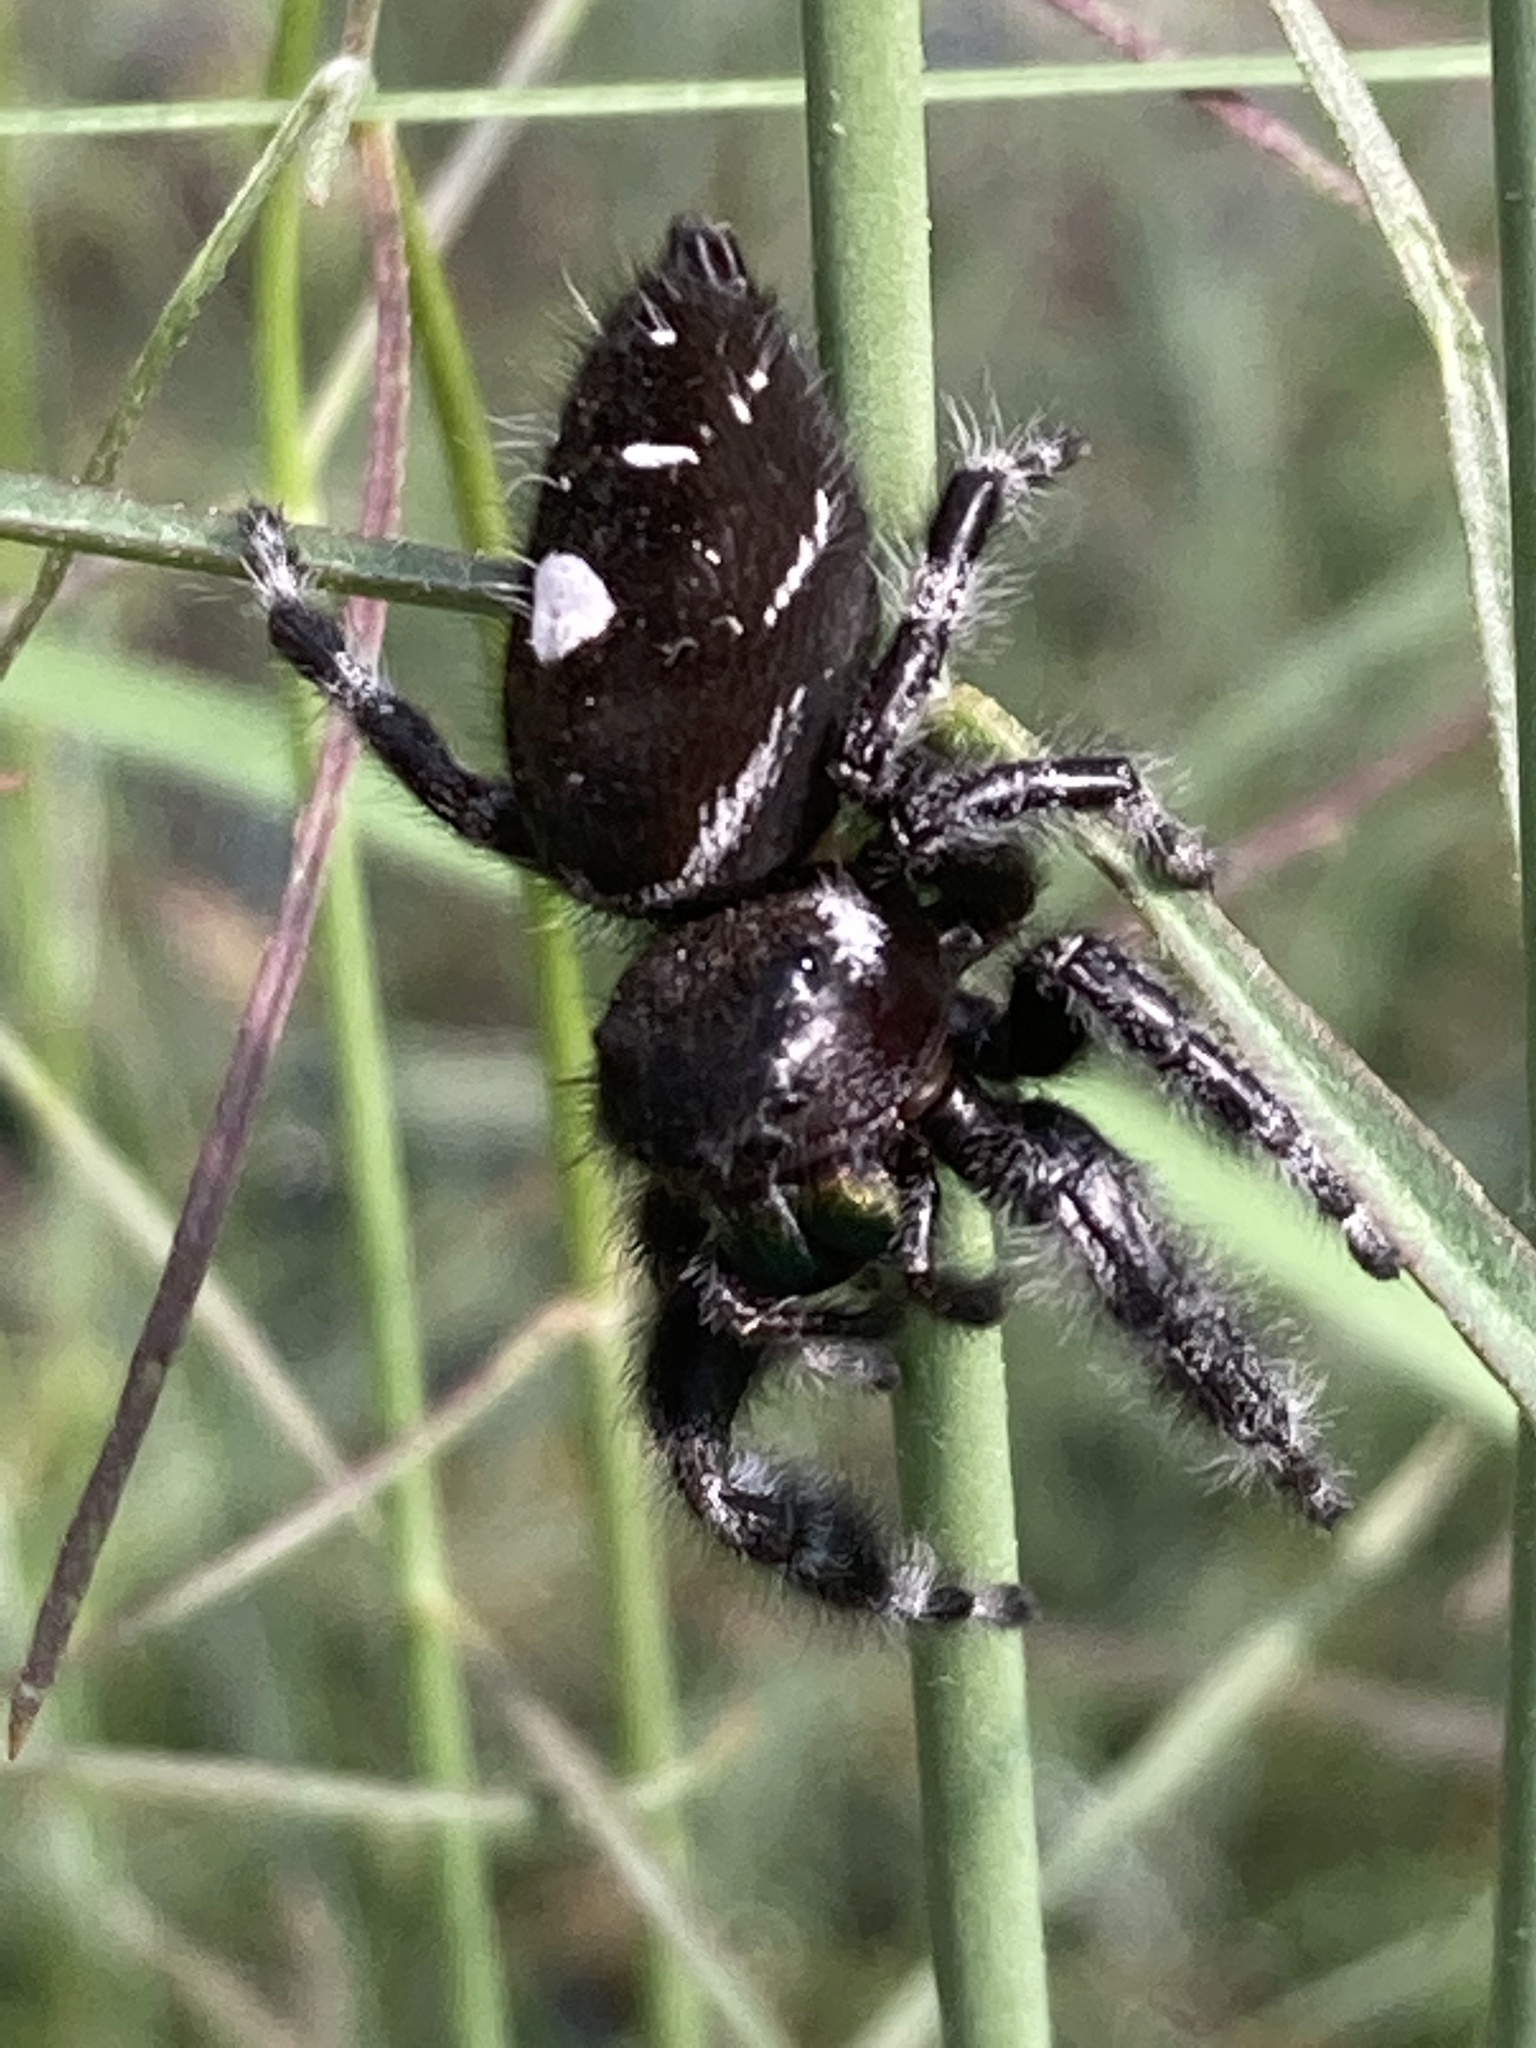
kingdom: Animalia
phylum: Arthropoda
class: Arachnida
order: Araneae
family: Salticidae
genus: Phidippus
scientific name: Phidippus audax
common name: Bold jumper
